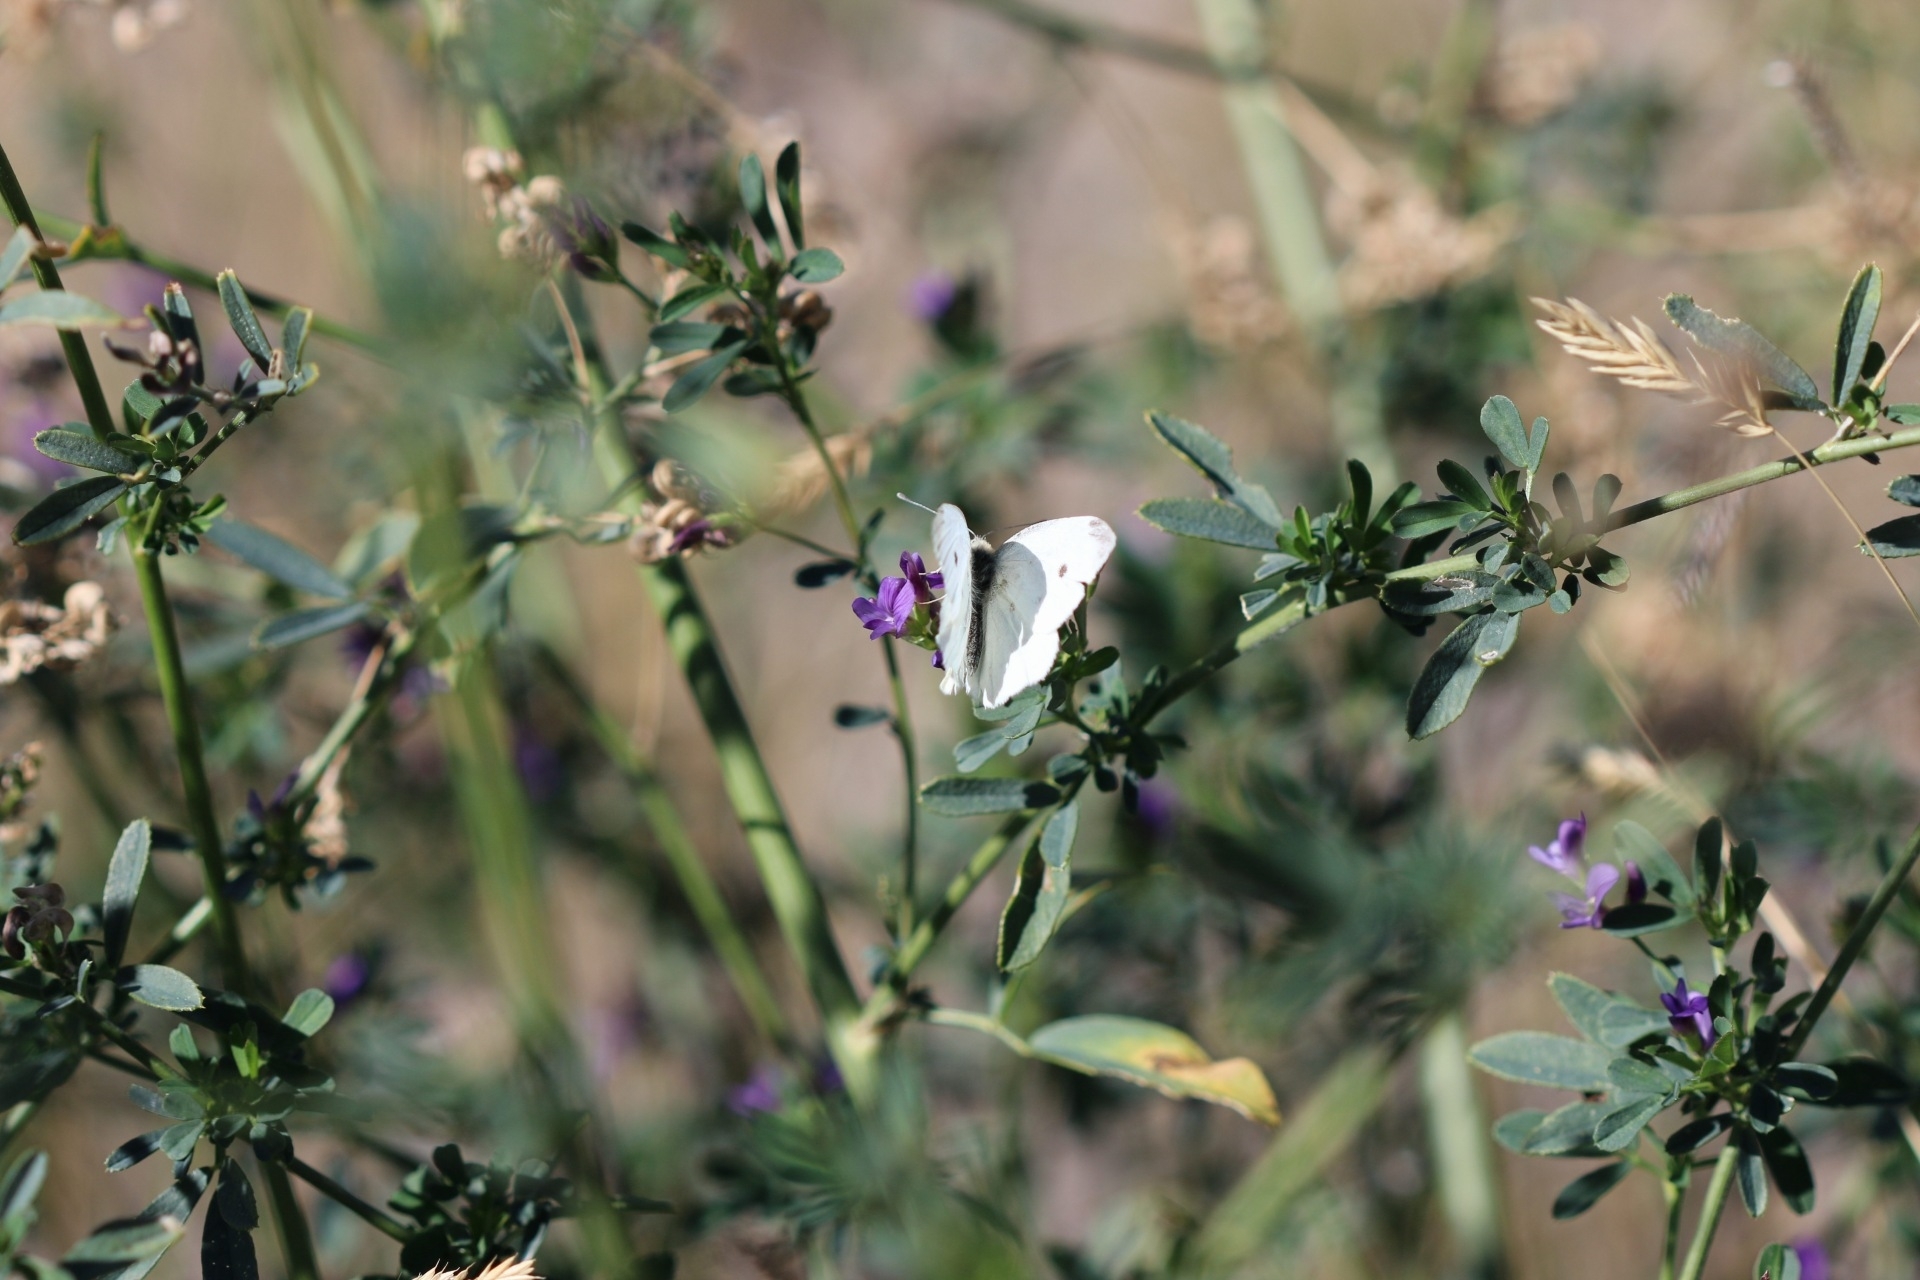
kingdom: Animalia
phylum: Arthropoda
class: Insecta
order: Lepidoptera
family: Pieridae
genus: Pieris
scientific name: Pieris rapae
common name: Small white
